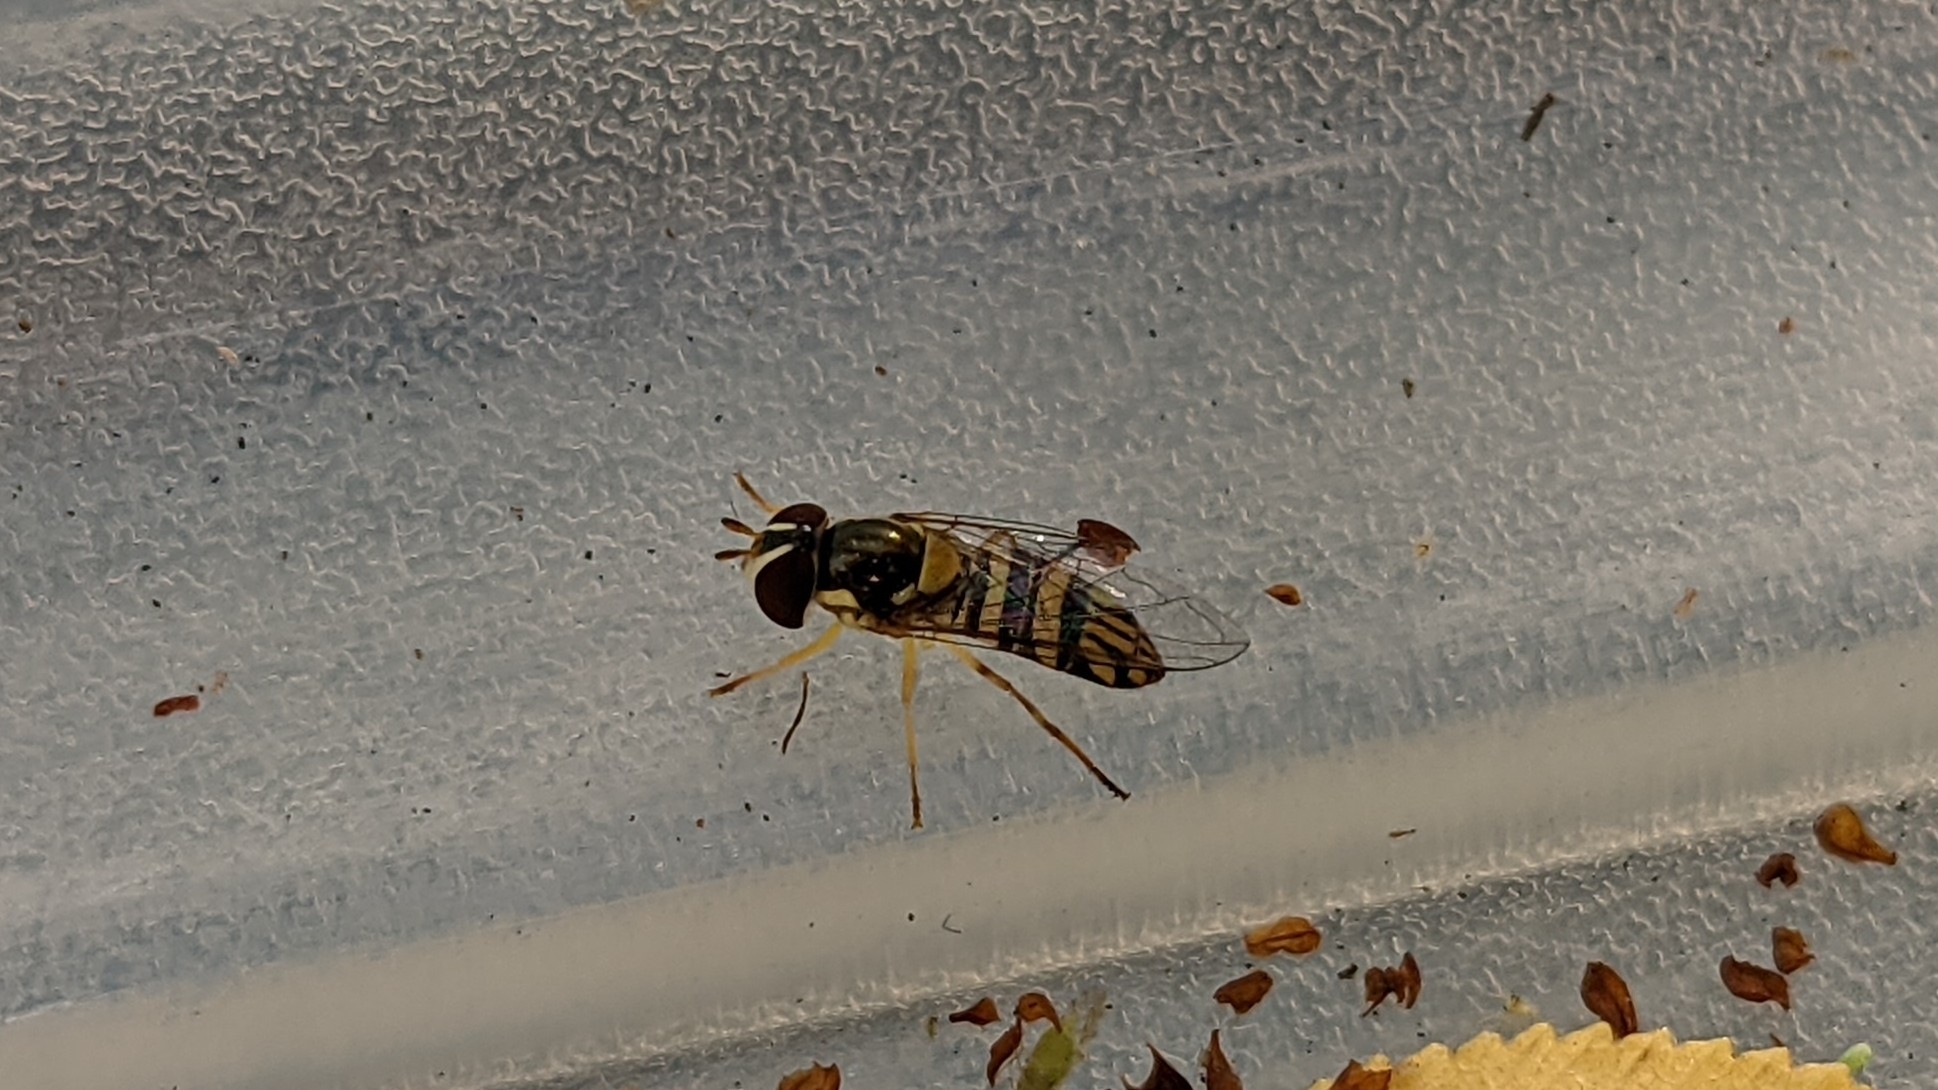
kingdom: Animalia
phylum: Arthropoda
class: Insecta
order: Diptera
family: Syrphidae
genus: Allograpta
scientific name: Allograpta obliqua
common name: Common oblique syrphid
